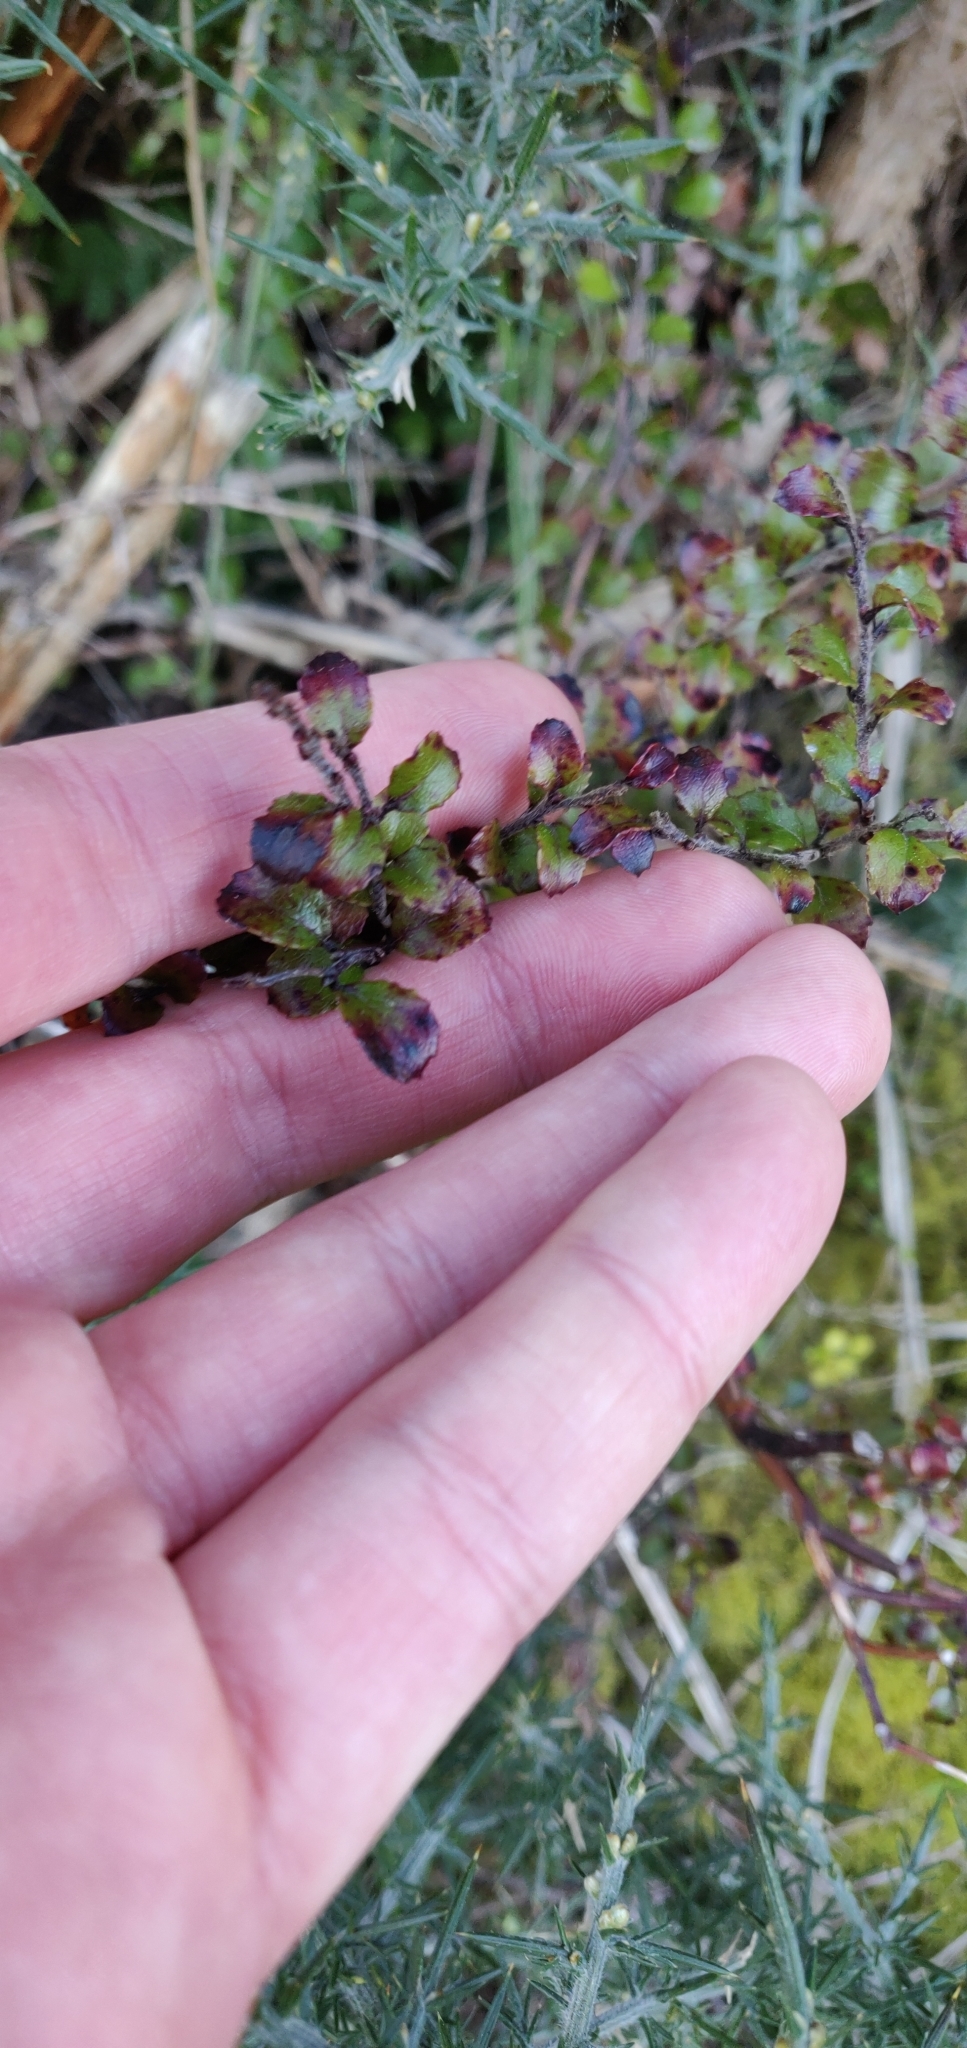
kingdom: Plantae
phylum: Tracheophyta
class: Magnoliopsida
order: Ericales
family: Ericaceae
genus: Gaultheria
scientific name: Gaultheria antipoda
